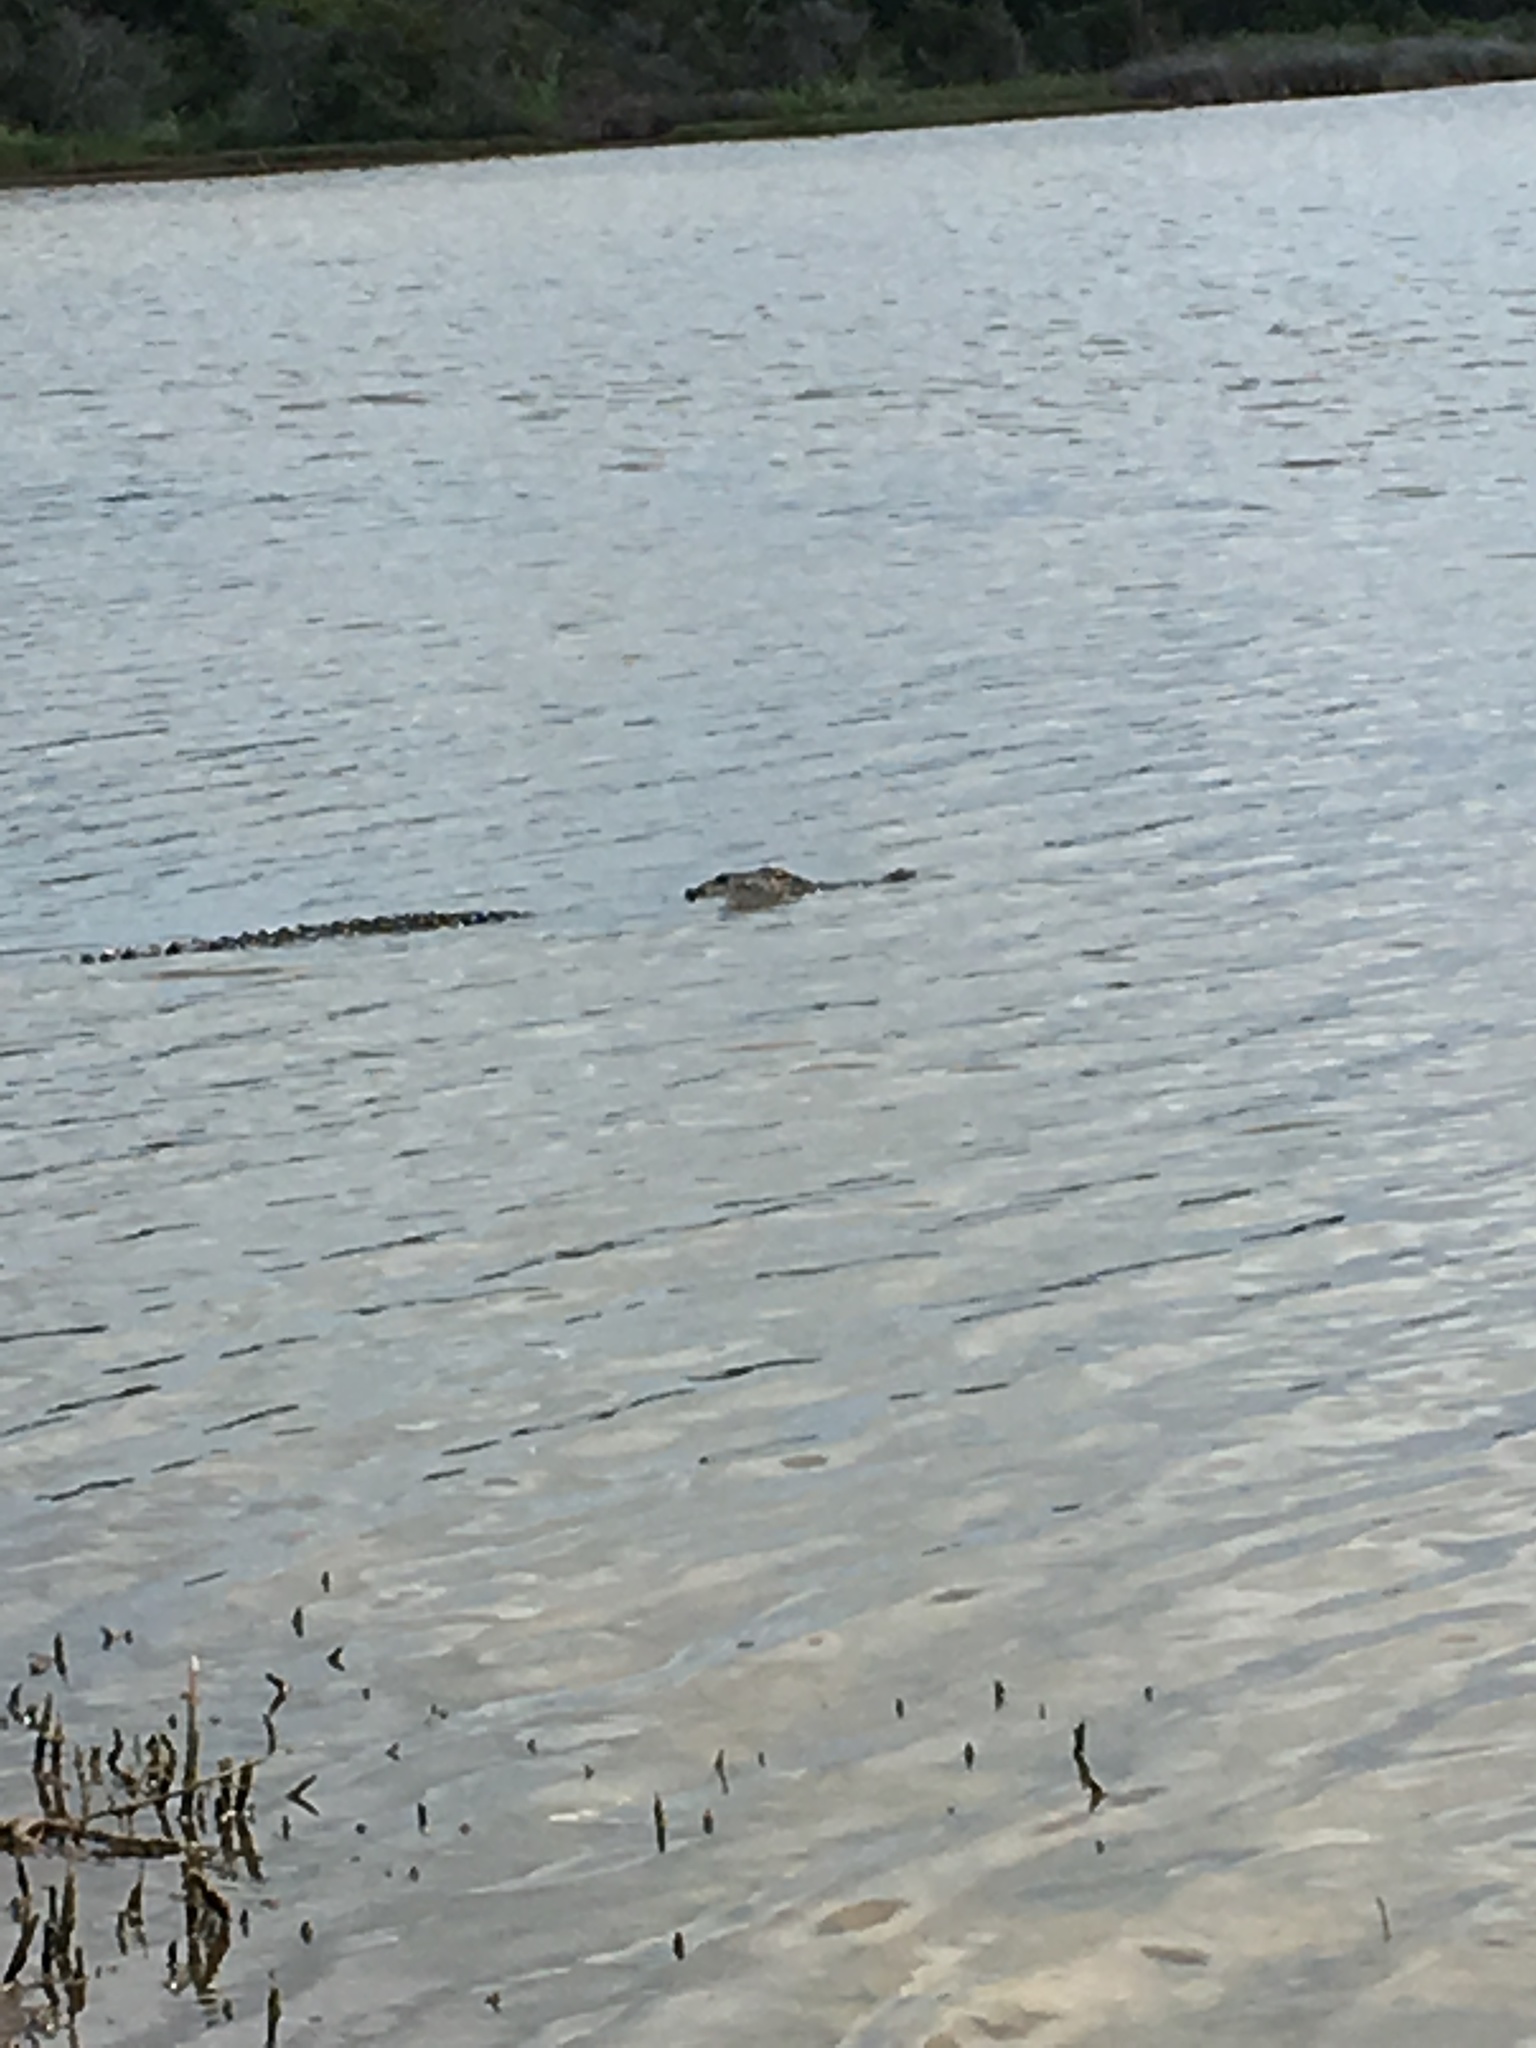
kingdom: Animalia
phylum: Chordata
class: Crocodylia
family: Alligatoridae
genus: Alligator
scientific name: Alligator mississippiensis
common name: American alligator
